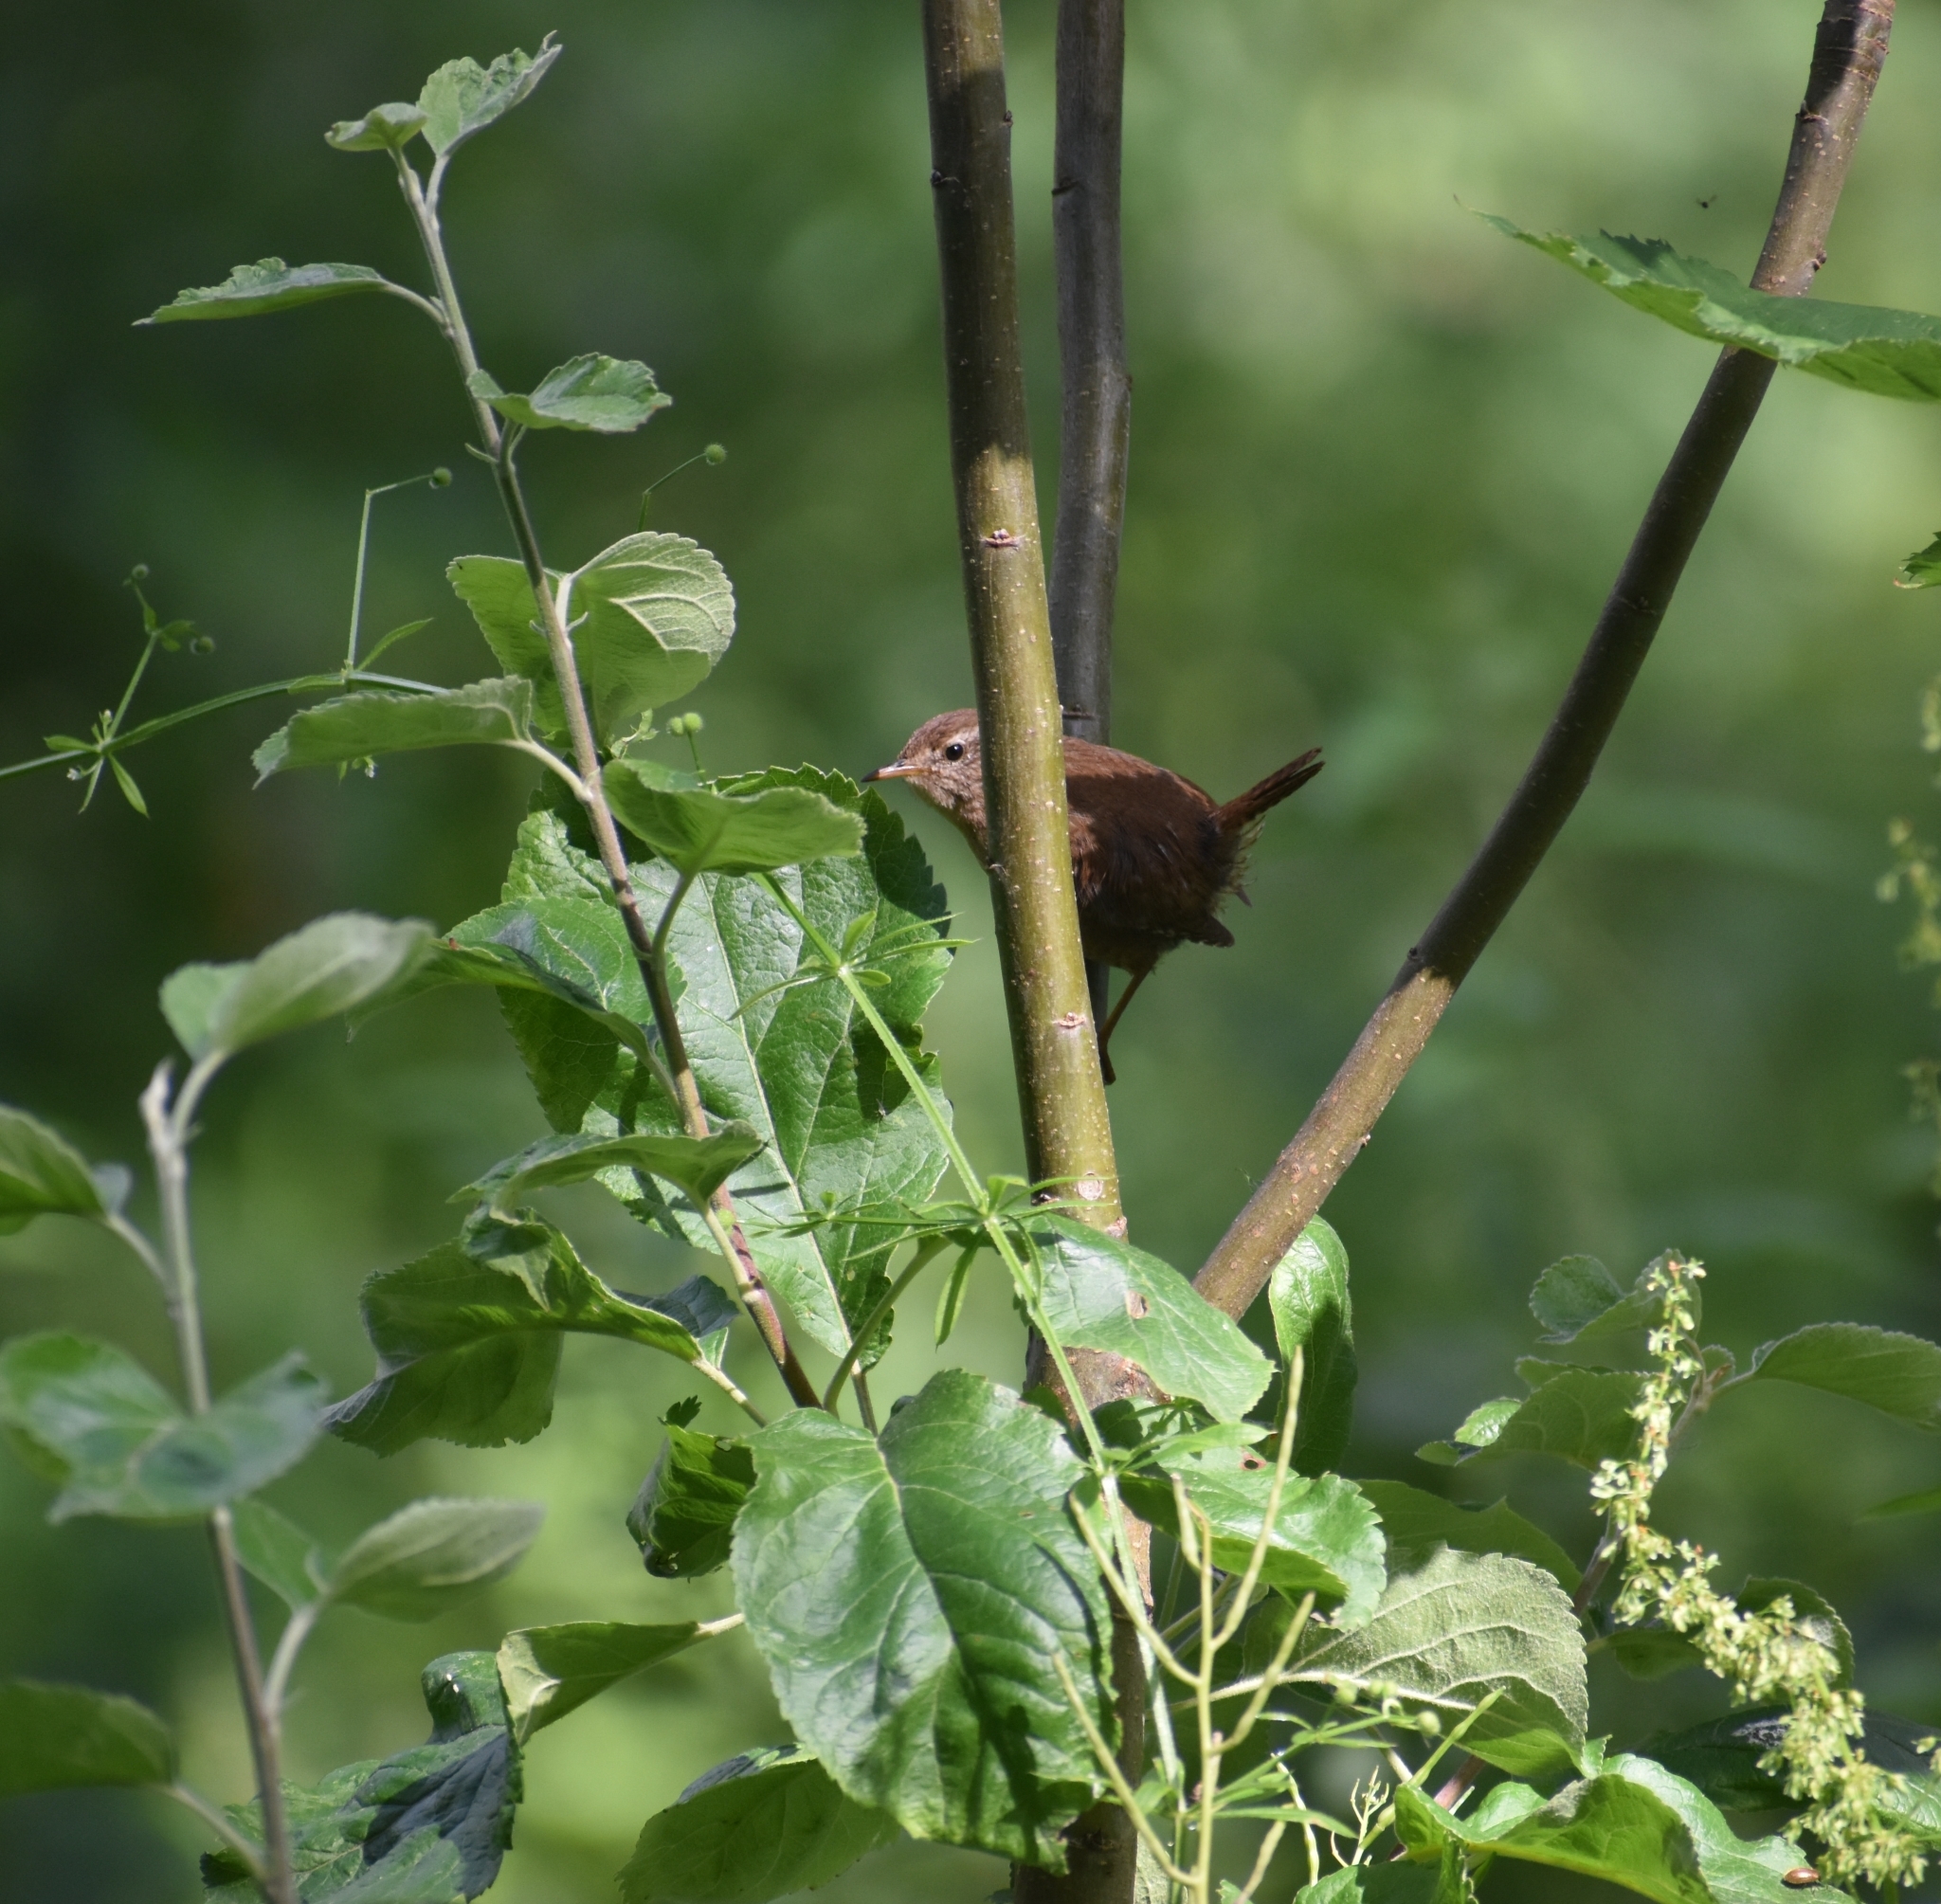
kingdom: Animalia
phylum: Chordata
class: Aves
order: Passeriformes
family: Troglodytidae
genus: Troglodytes
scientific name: Troglodytes troglodytes
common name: Eurasian wren
